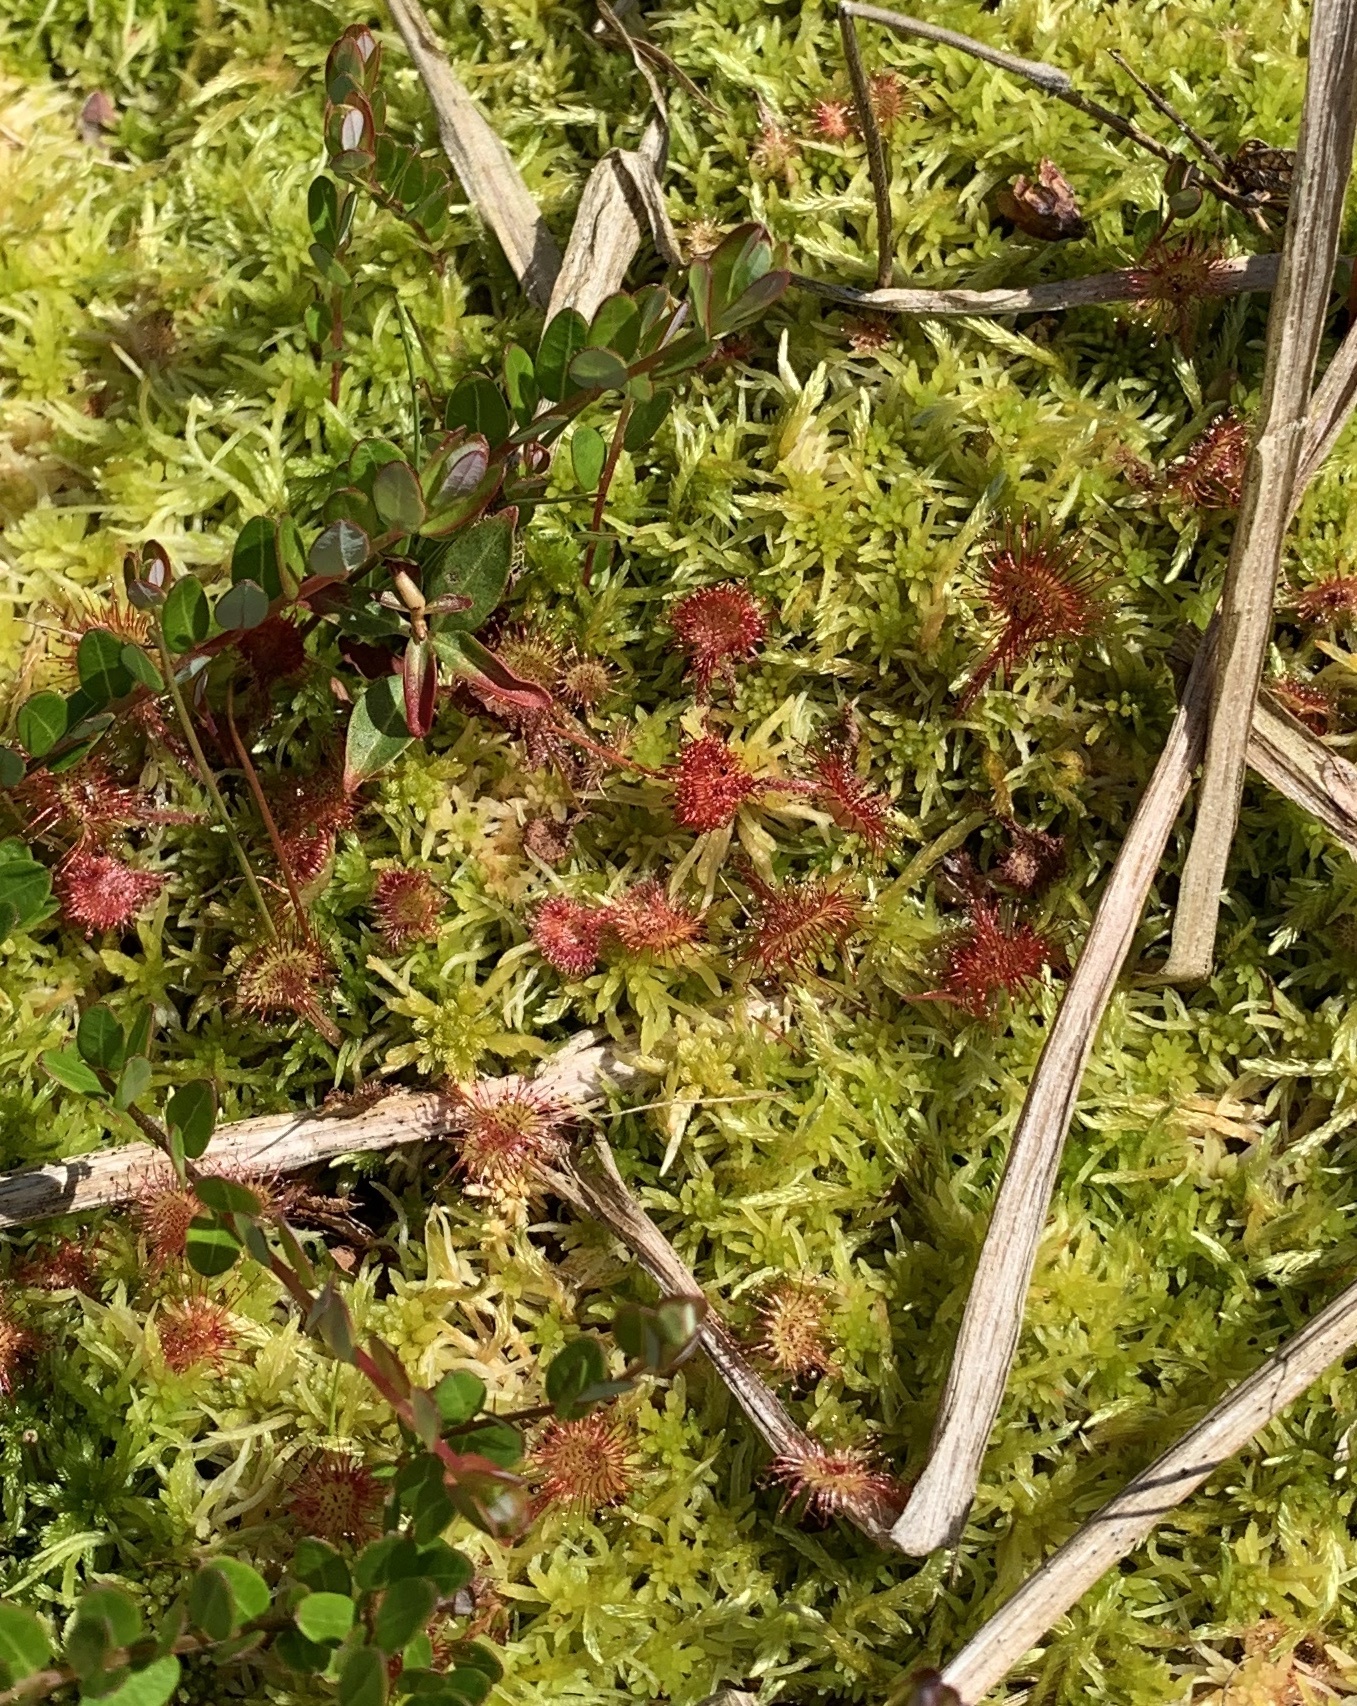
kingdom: Plantae
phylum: Tracheophyta
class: Magnoliopsida
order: Caryophyllales
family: Droseraceae
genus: Drosera
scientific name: Drosera rotundifolia
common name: Round-leaved sundew
